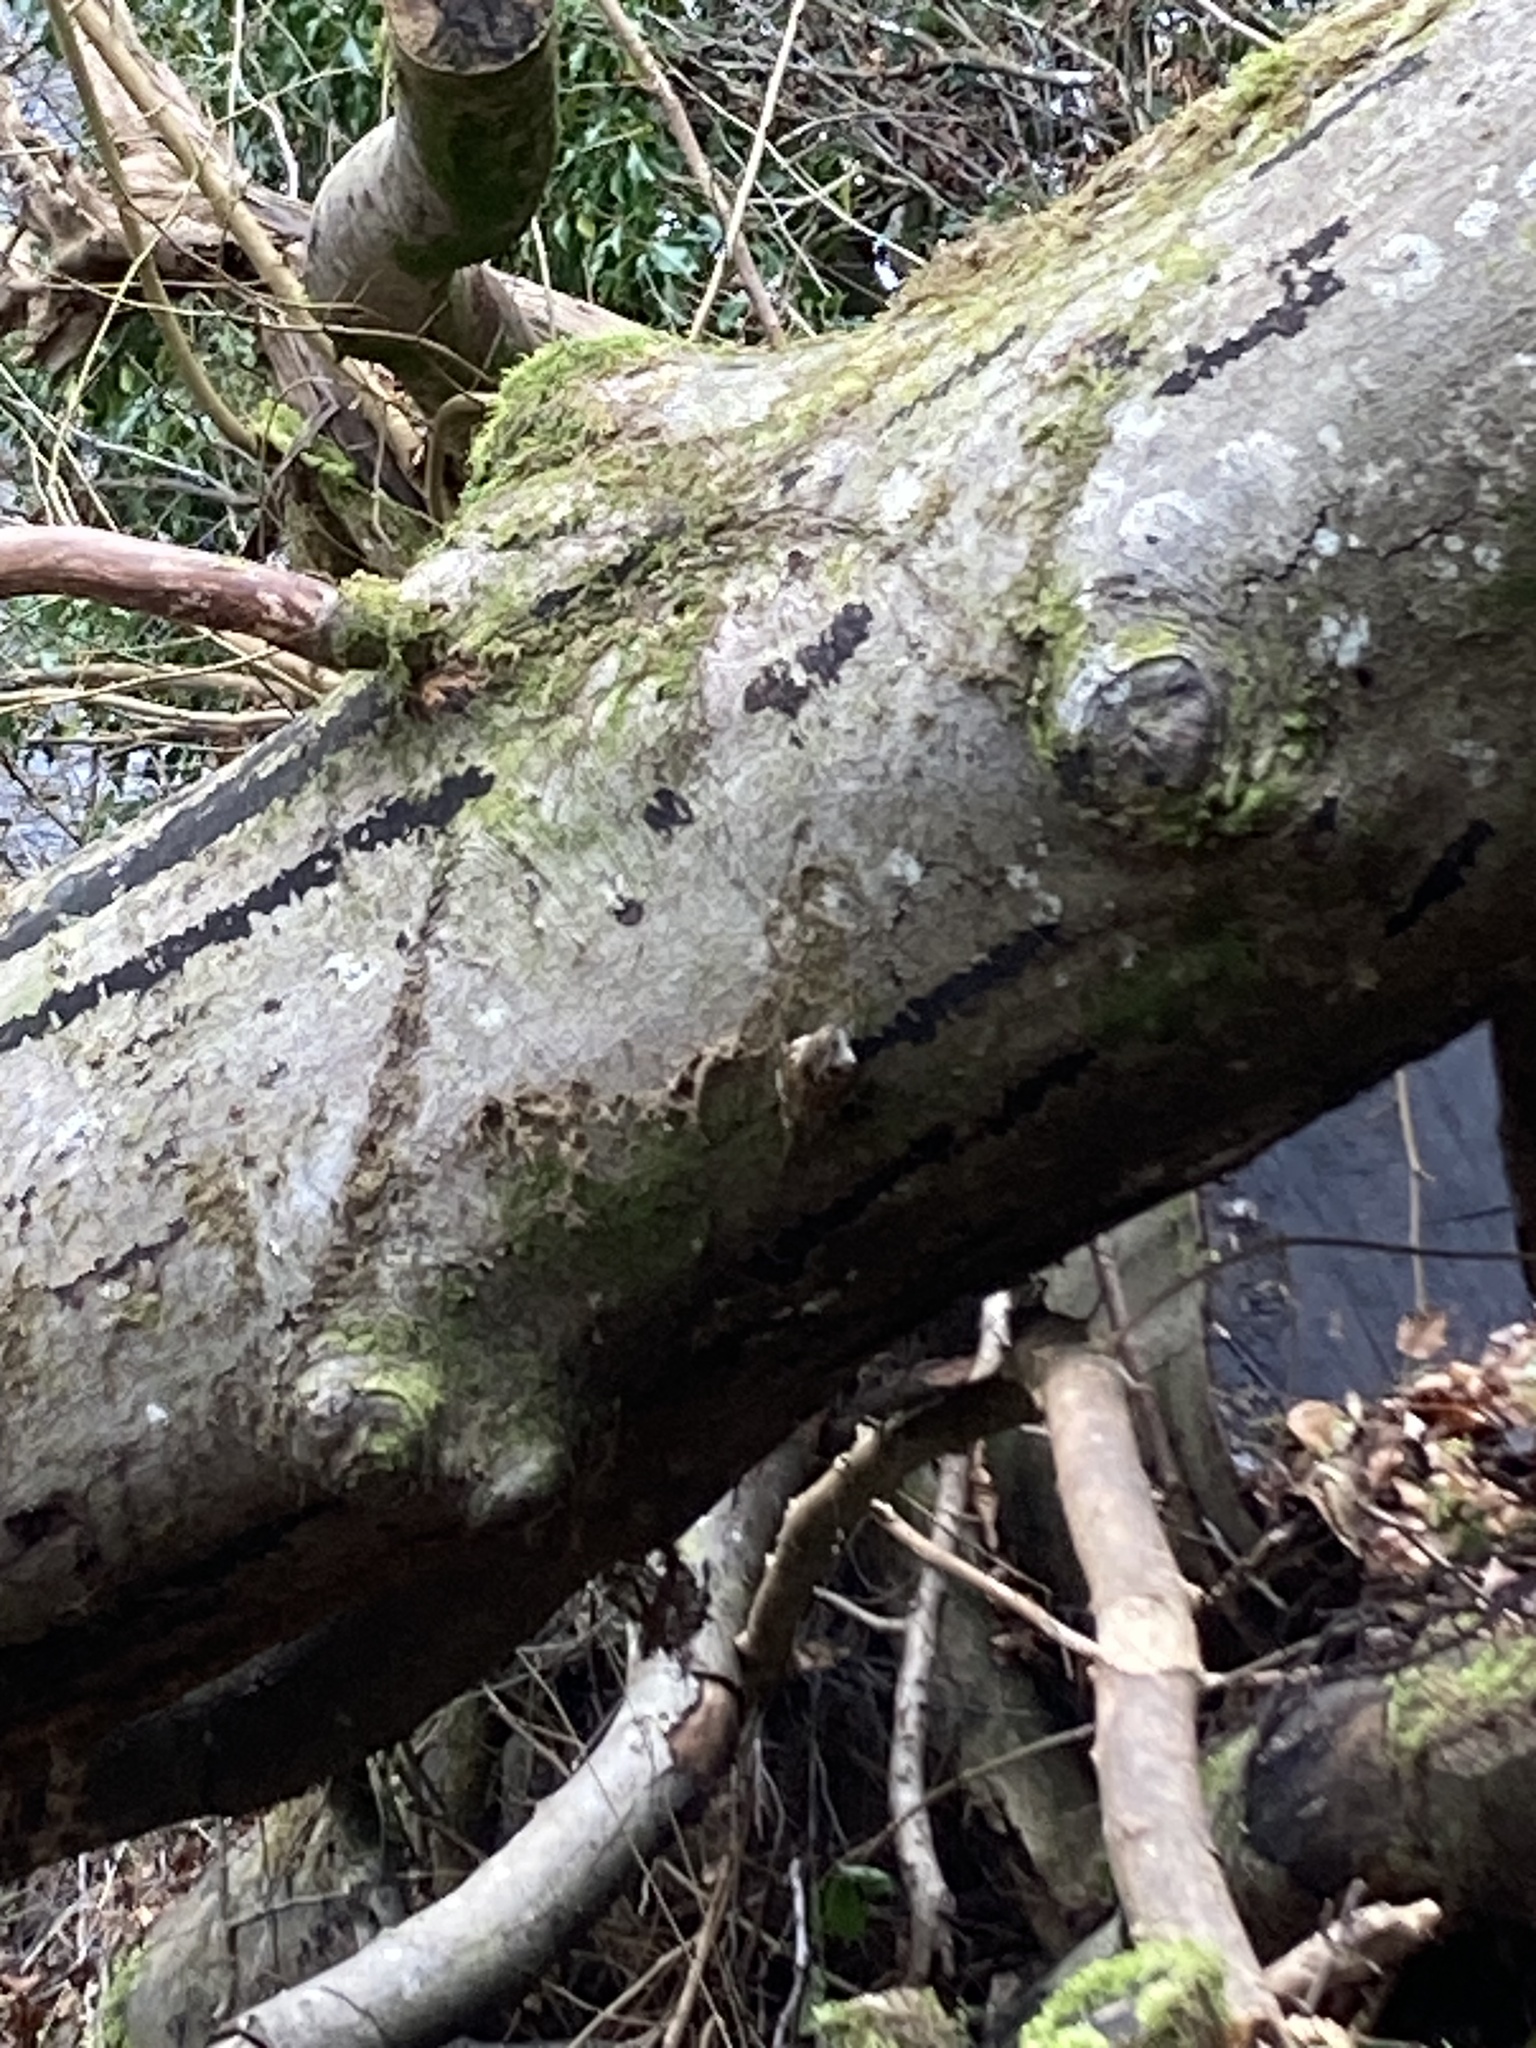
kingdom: Animalia
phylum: Chordata
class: Aves
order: Passeriformes
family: Certhiidae
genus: Certhia
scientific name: Certhia familiaris
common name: Eurasian treecreeper
